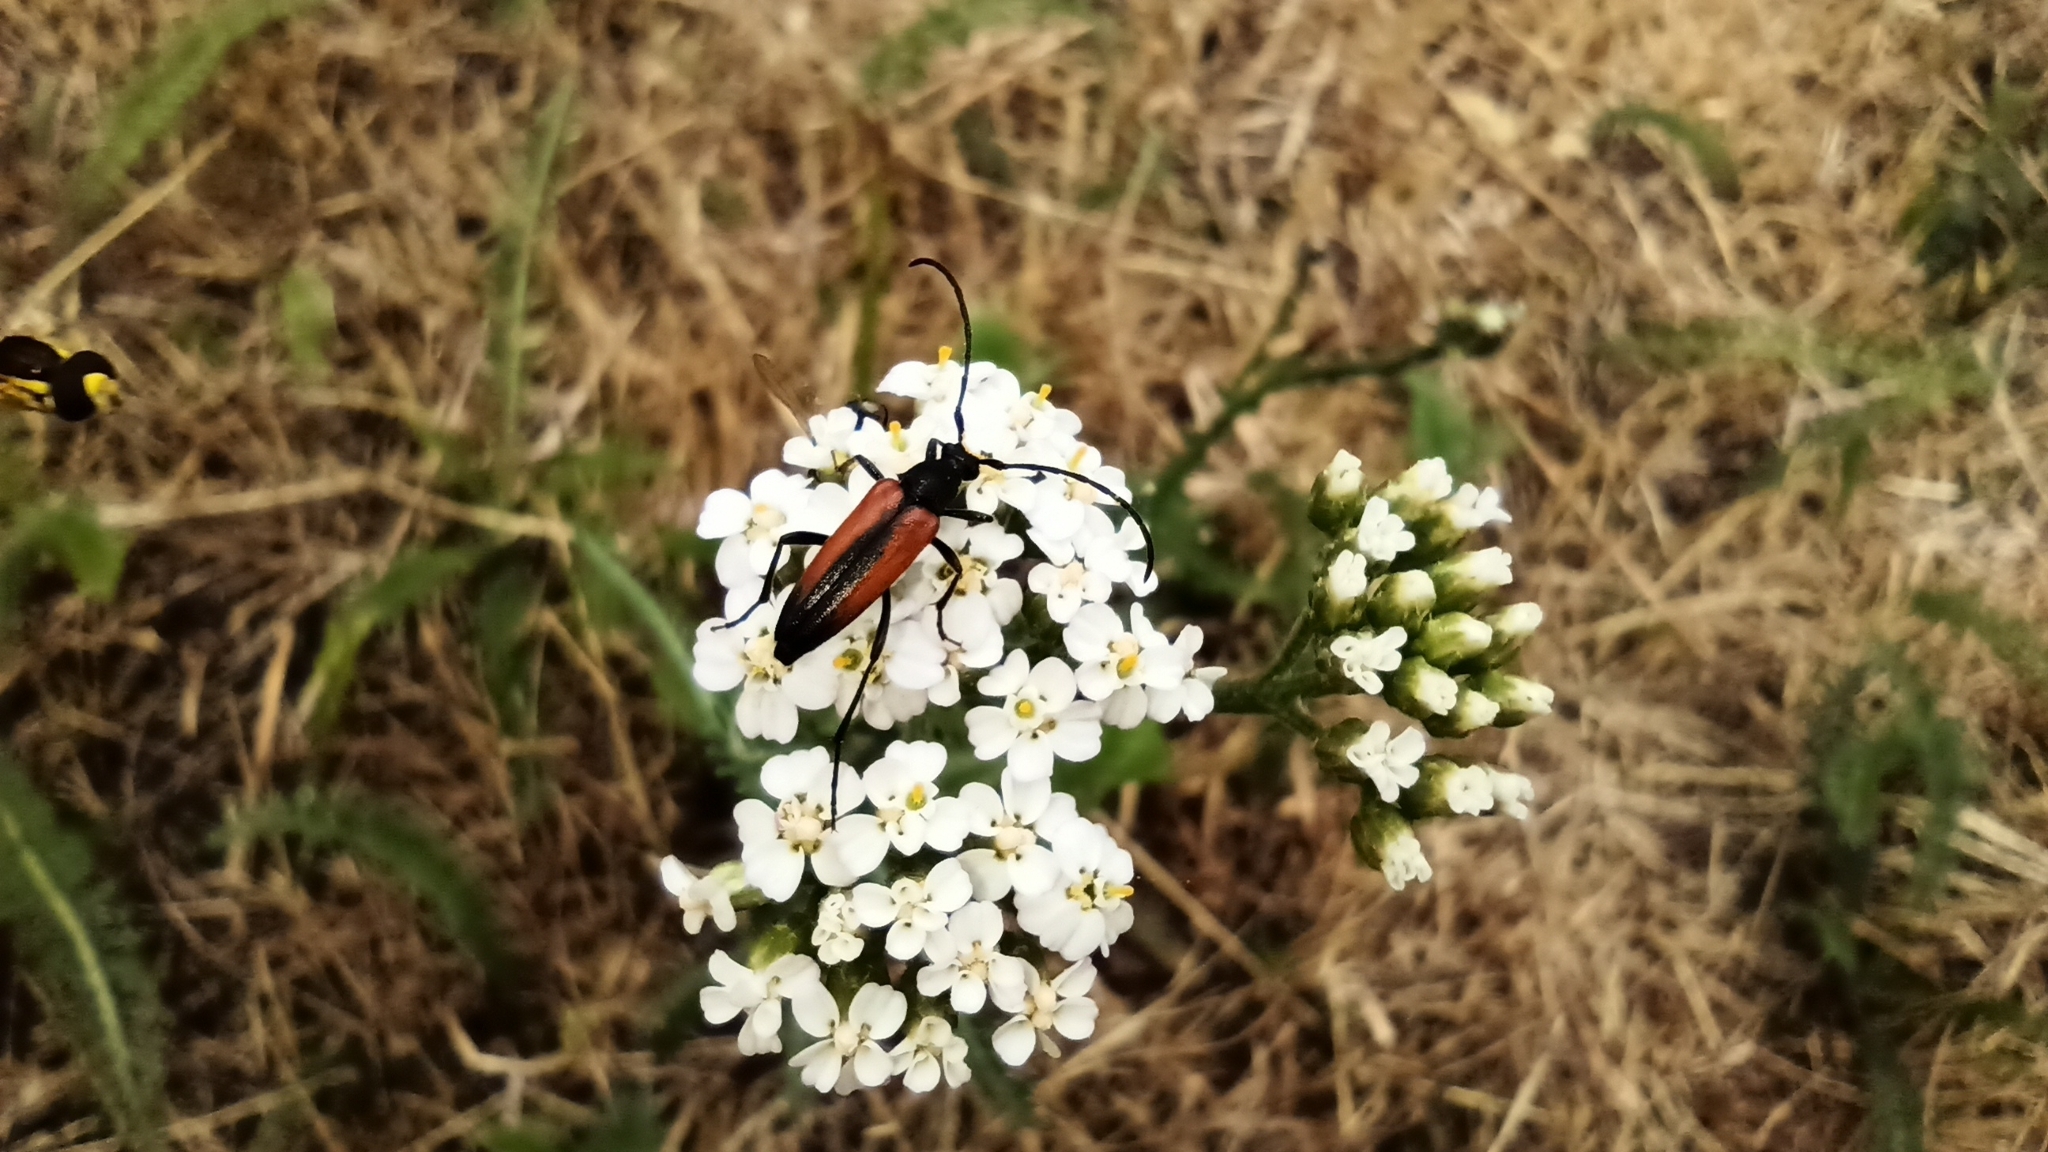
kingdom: Animalia
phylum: Arthropoda
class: Insecta
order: Coleoptera
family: Cerambycidae
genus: Stenurella
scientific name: Stenurella melanura
